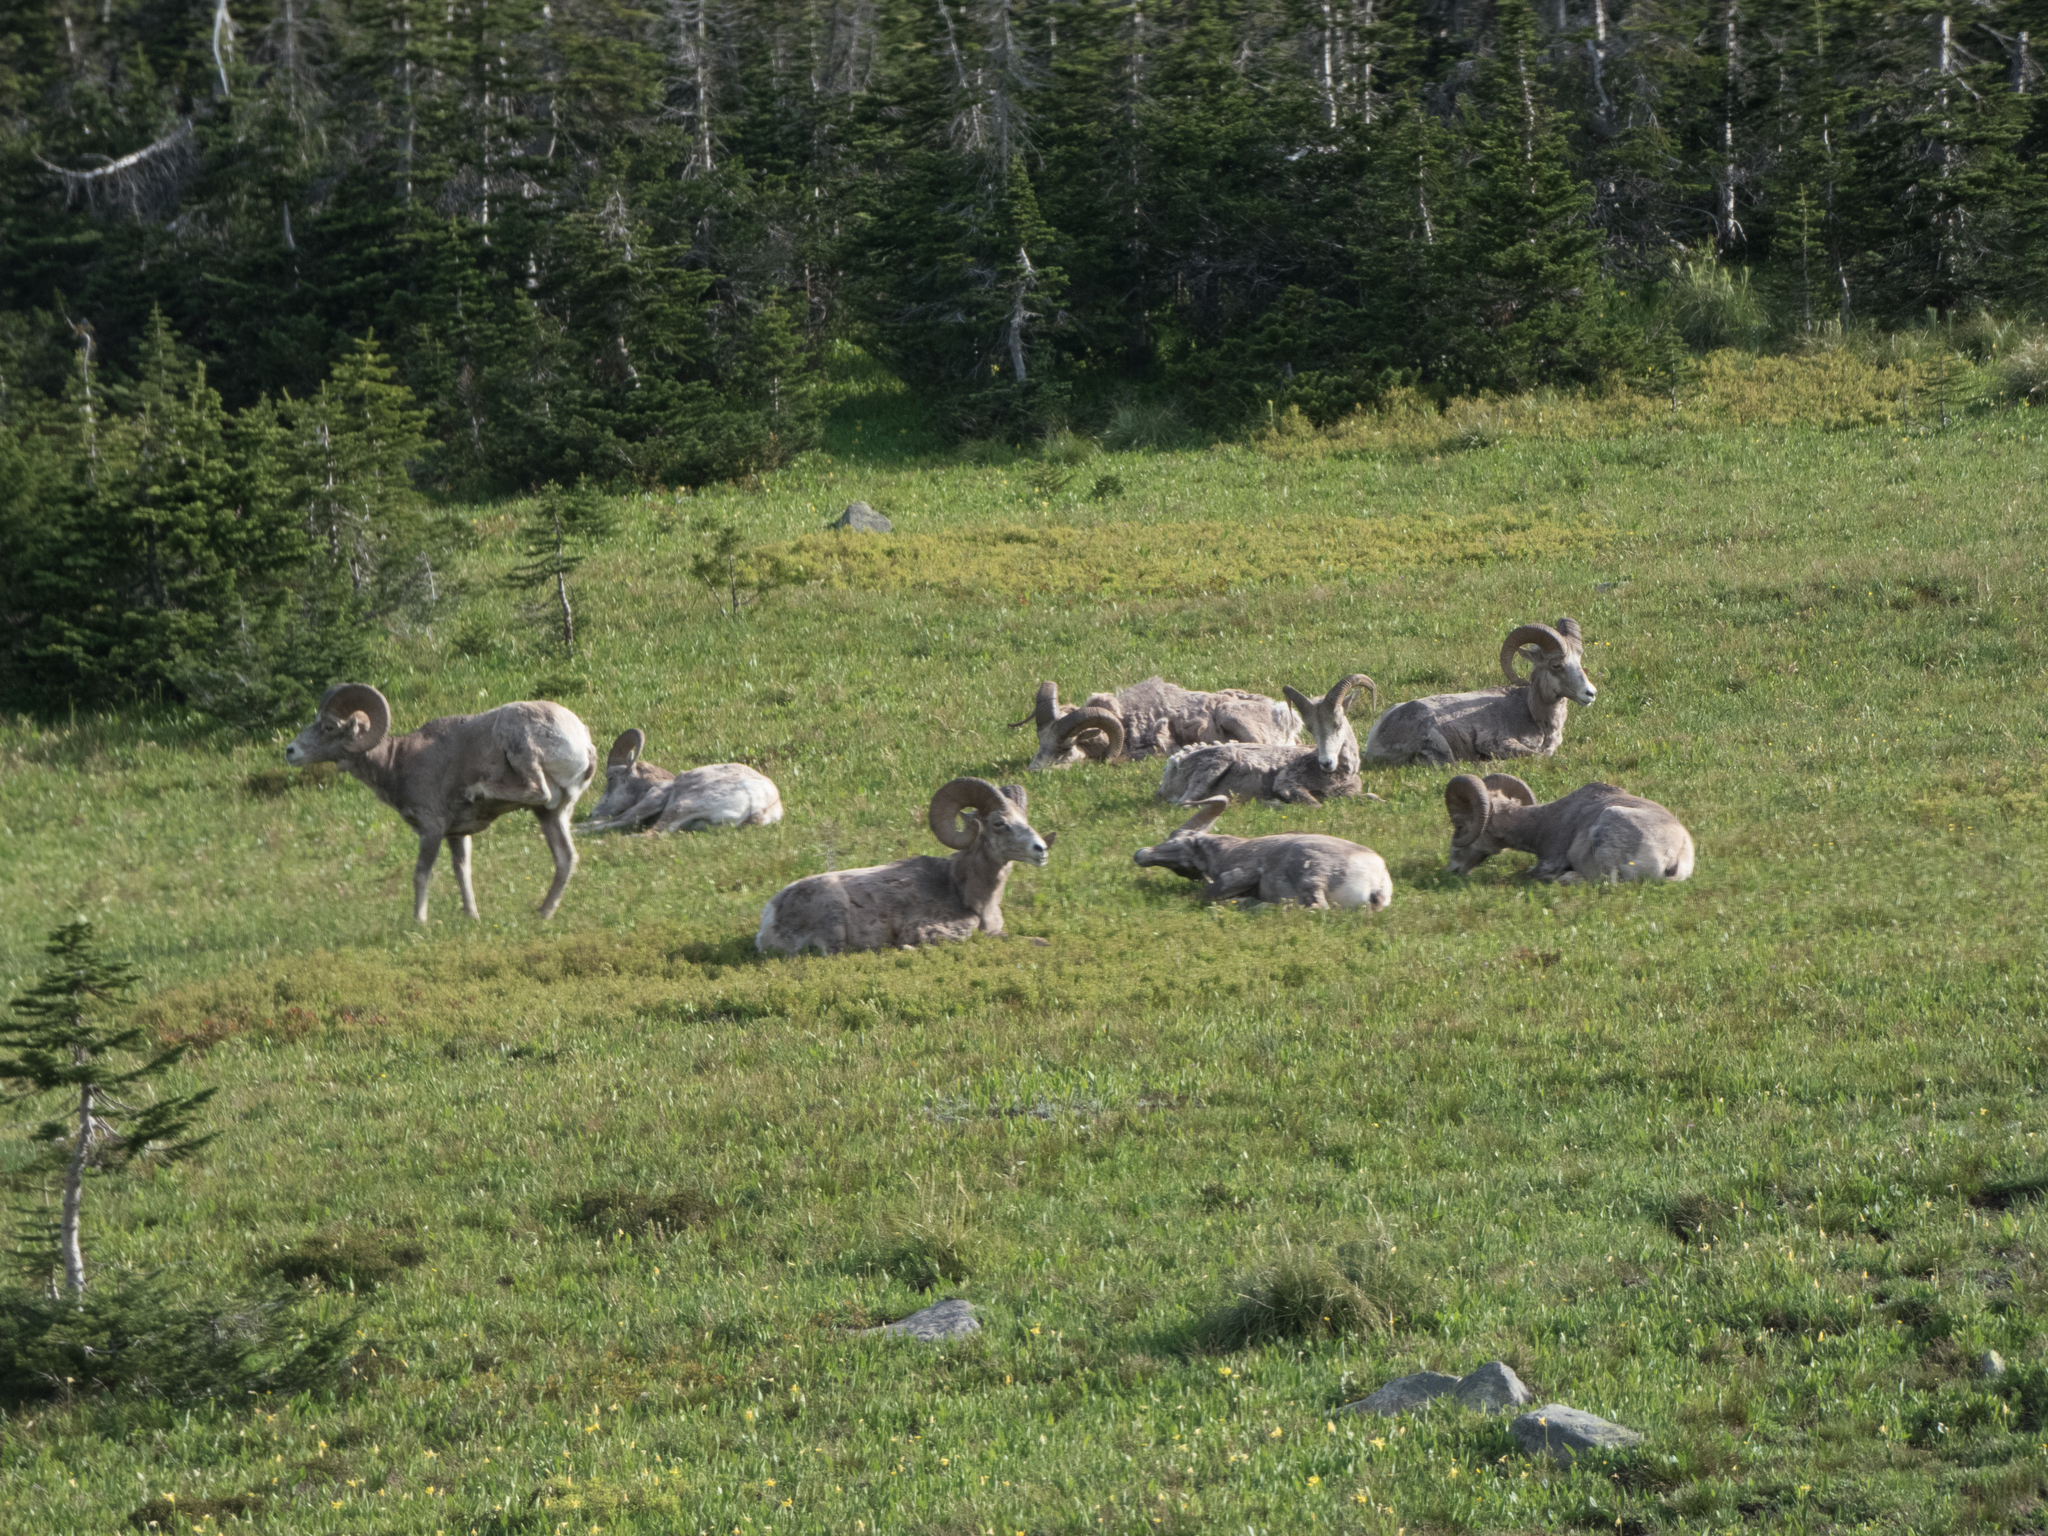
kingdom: Animalia
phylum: Chordata
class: Mammalia
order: Artiodactyla
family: Bovidae
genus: Ovis
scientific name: Ovis canadensis
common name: Bighorn sheep
